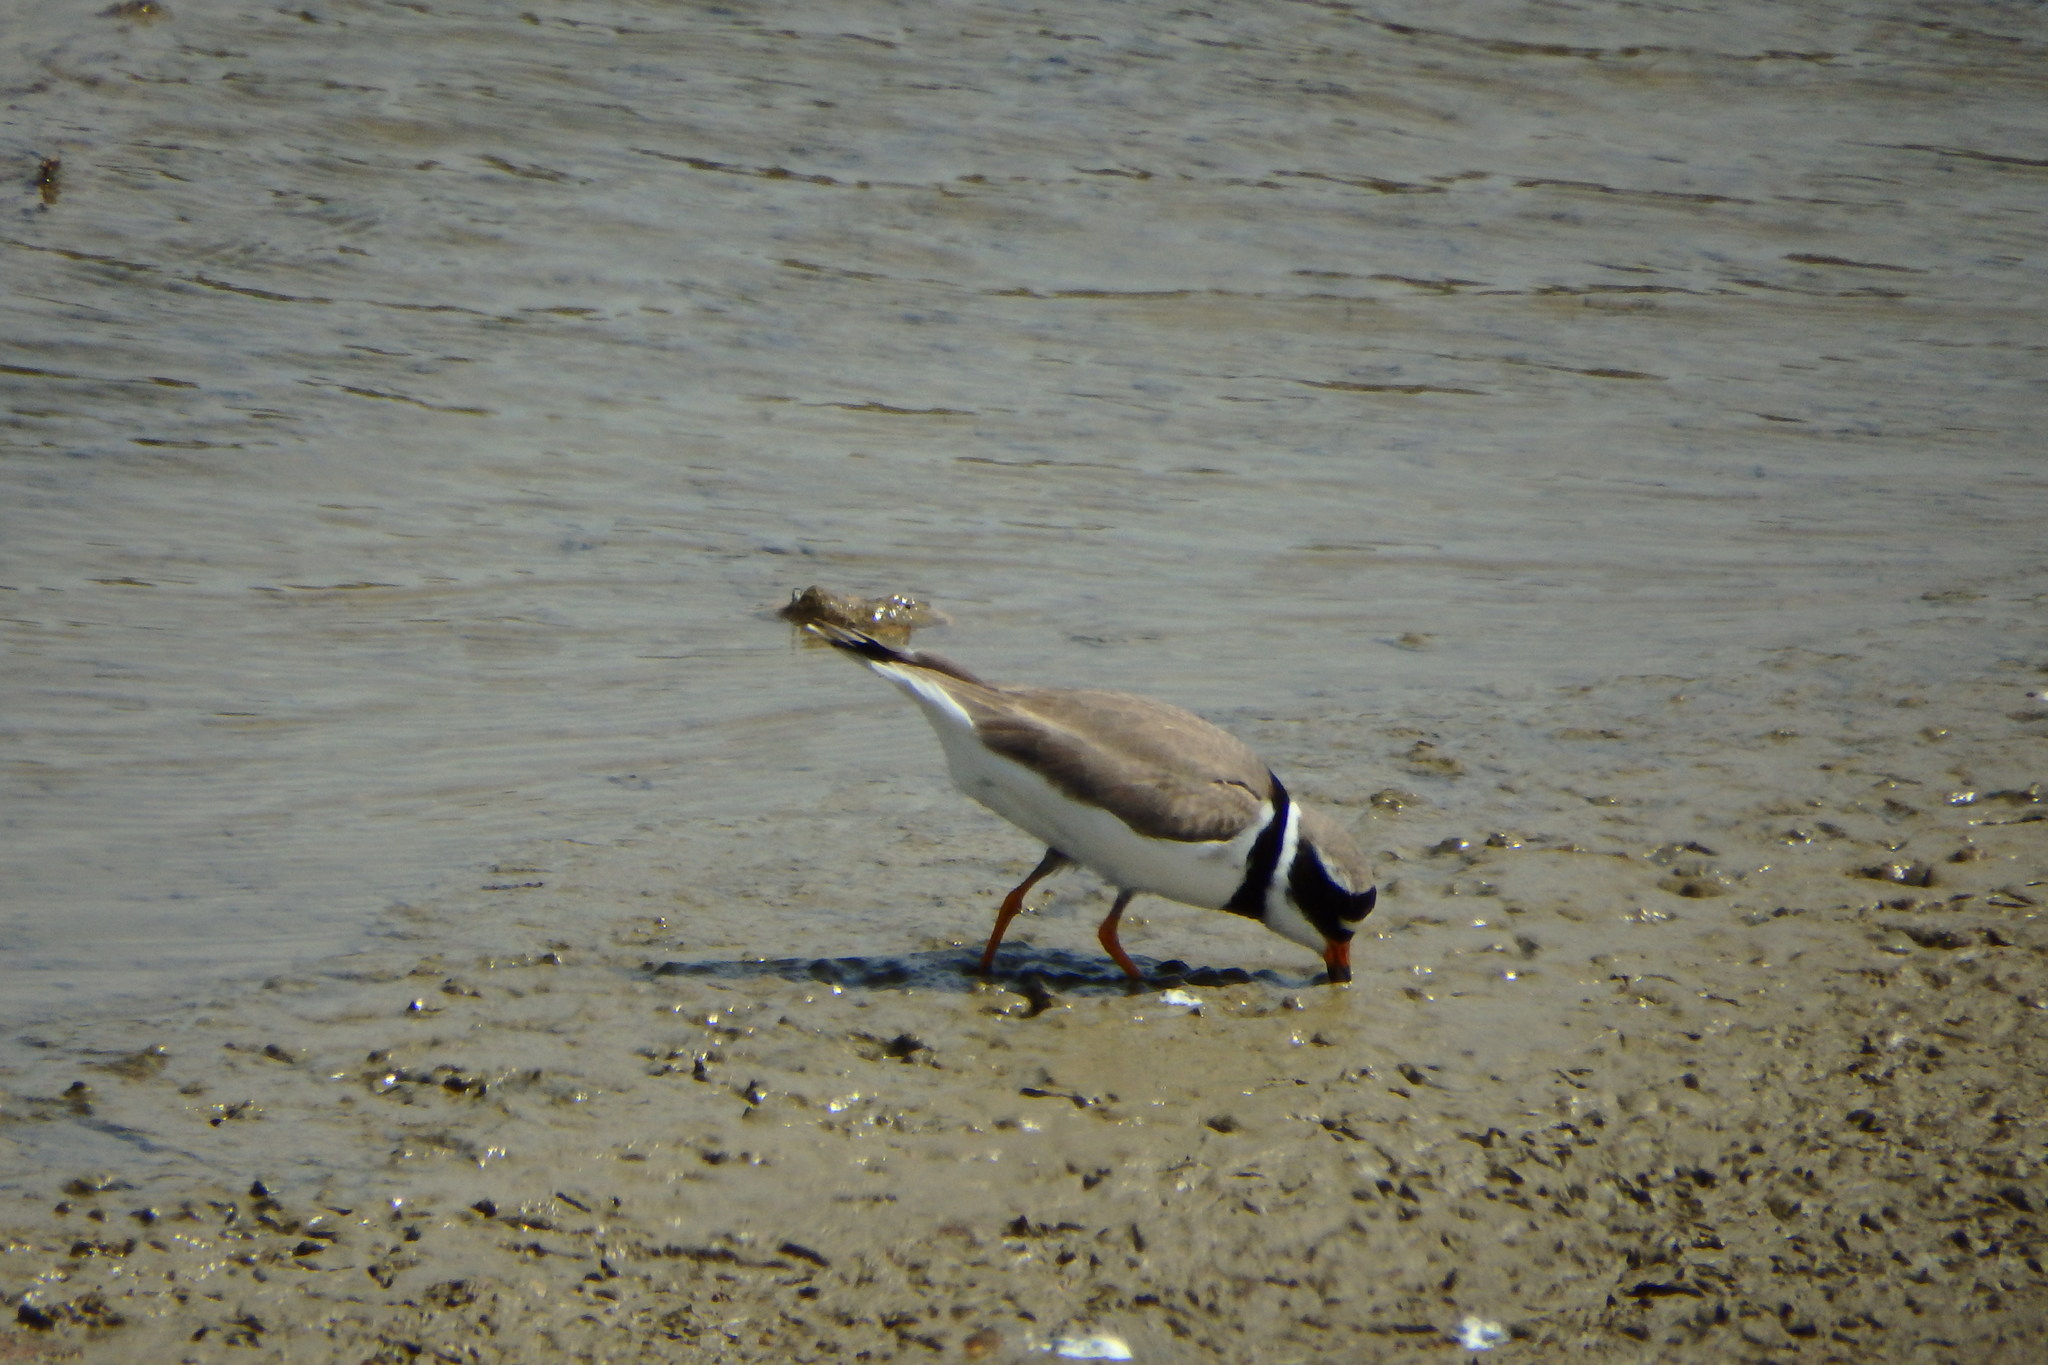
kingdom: Animalia
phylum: Chordata
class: Aves
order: Charadriiformes
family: Charadriidae
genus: Charadrius
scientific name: Charadrius hiaticula
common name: Common ringed plover
